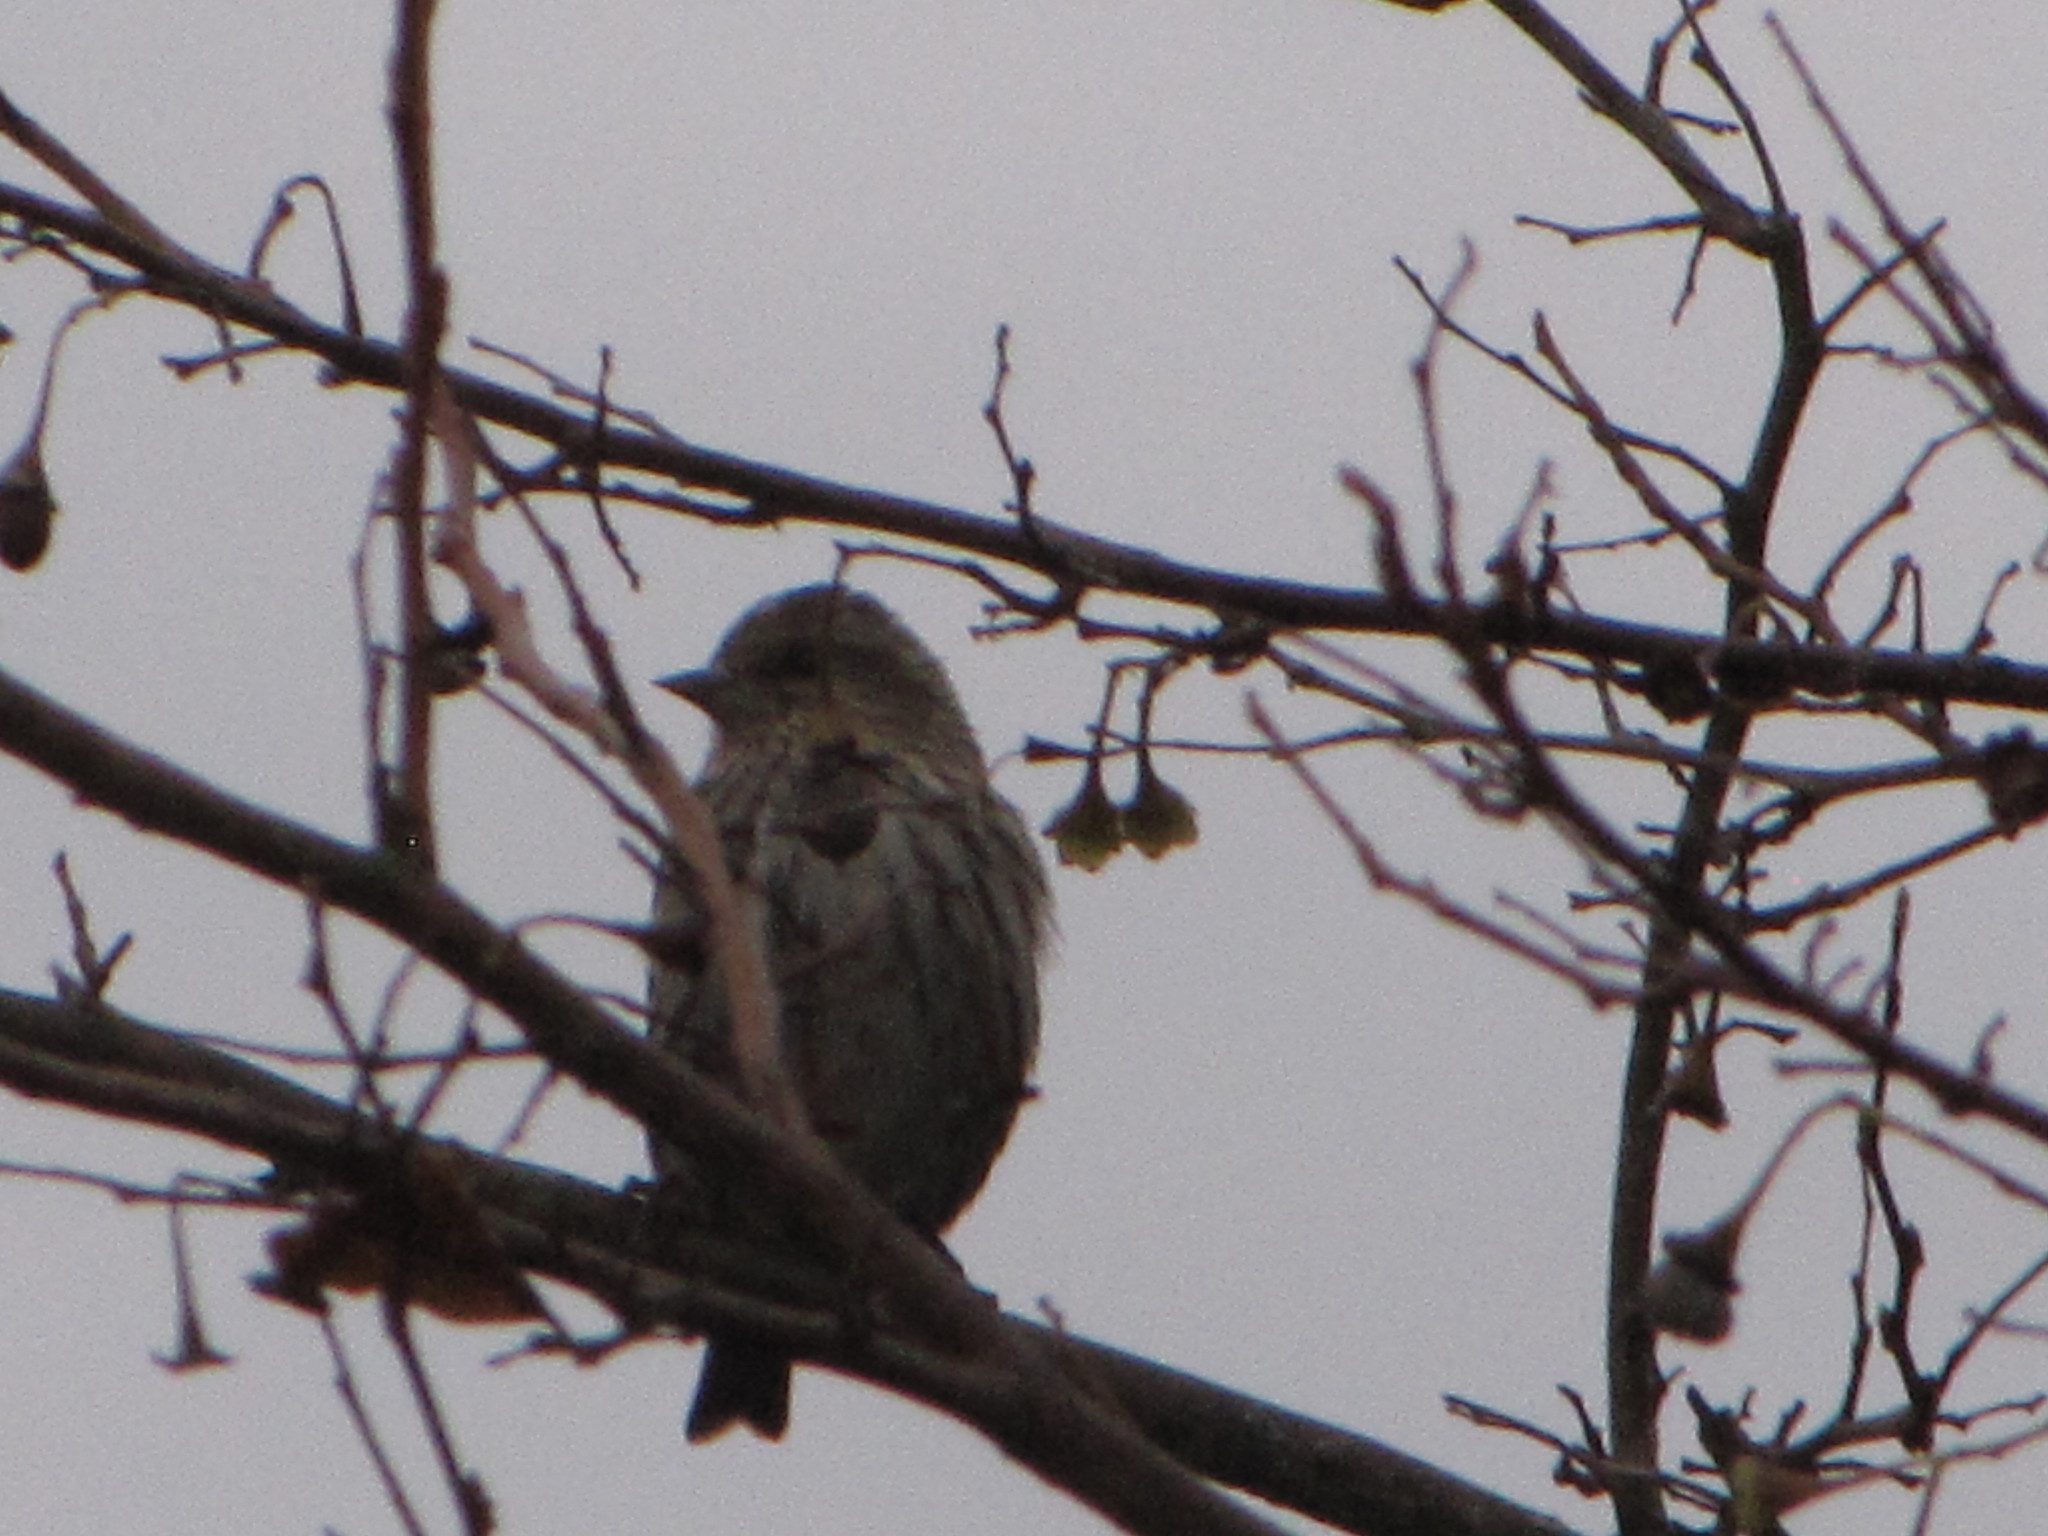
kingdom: Animalia
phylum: Chordata
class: Aves
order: Passeriformes
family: Fringillidae
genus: Spinus
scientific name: Spinus pinus
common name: Pine siskin
